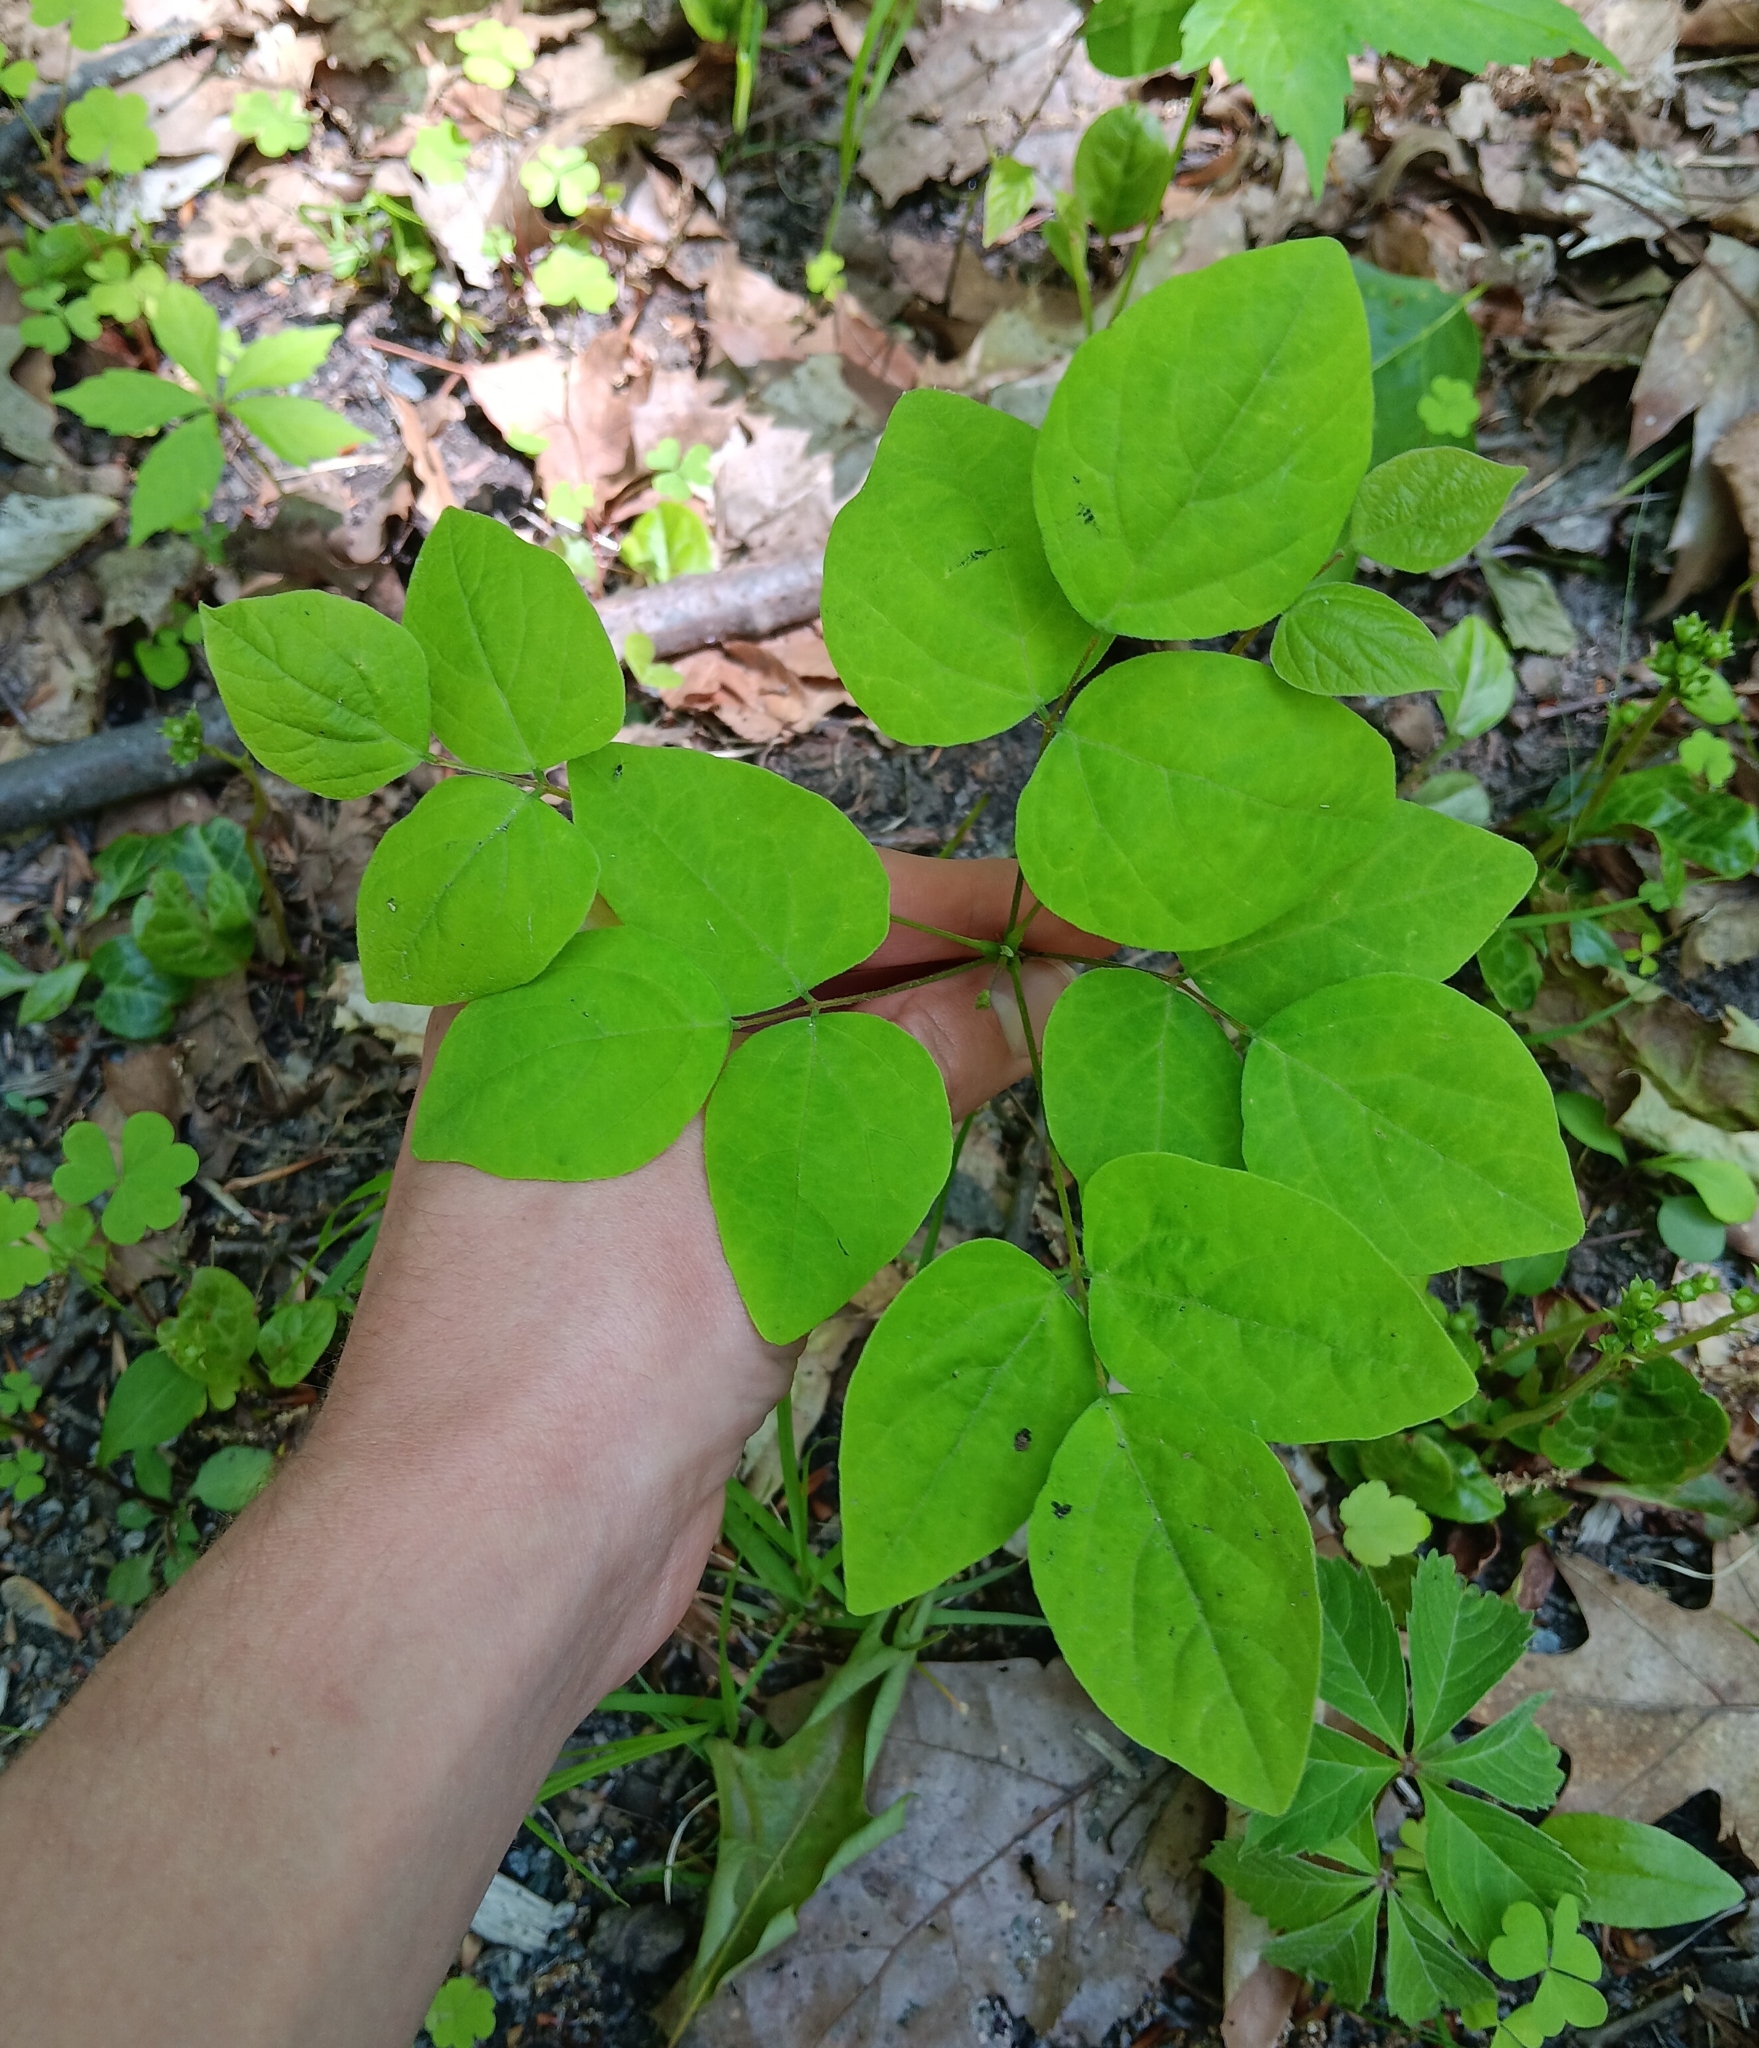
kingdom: Plantae
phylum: Tracheophyta
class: Magnoliopsida
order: Fabales
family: Fabaceae
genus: Hylodesmum
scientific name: Hylodesmum nudiflorum
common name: Bare-stemmed tick-trefoil
